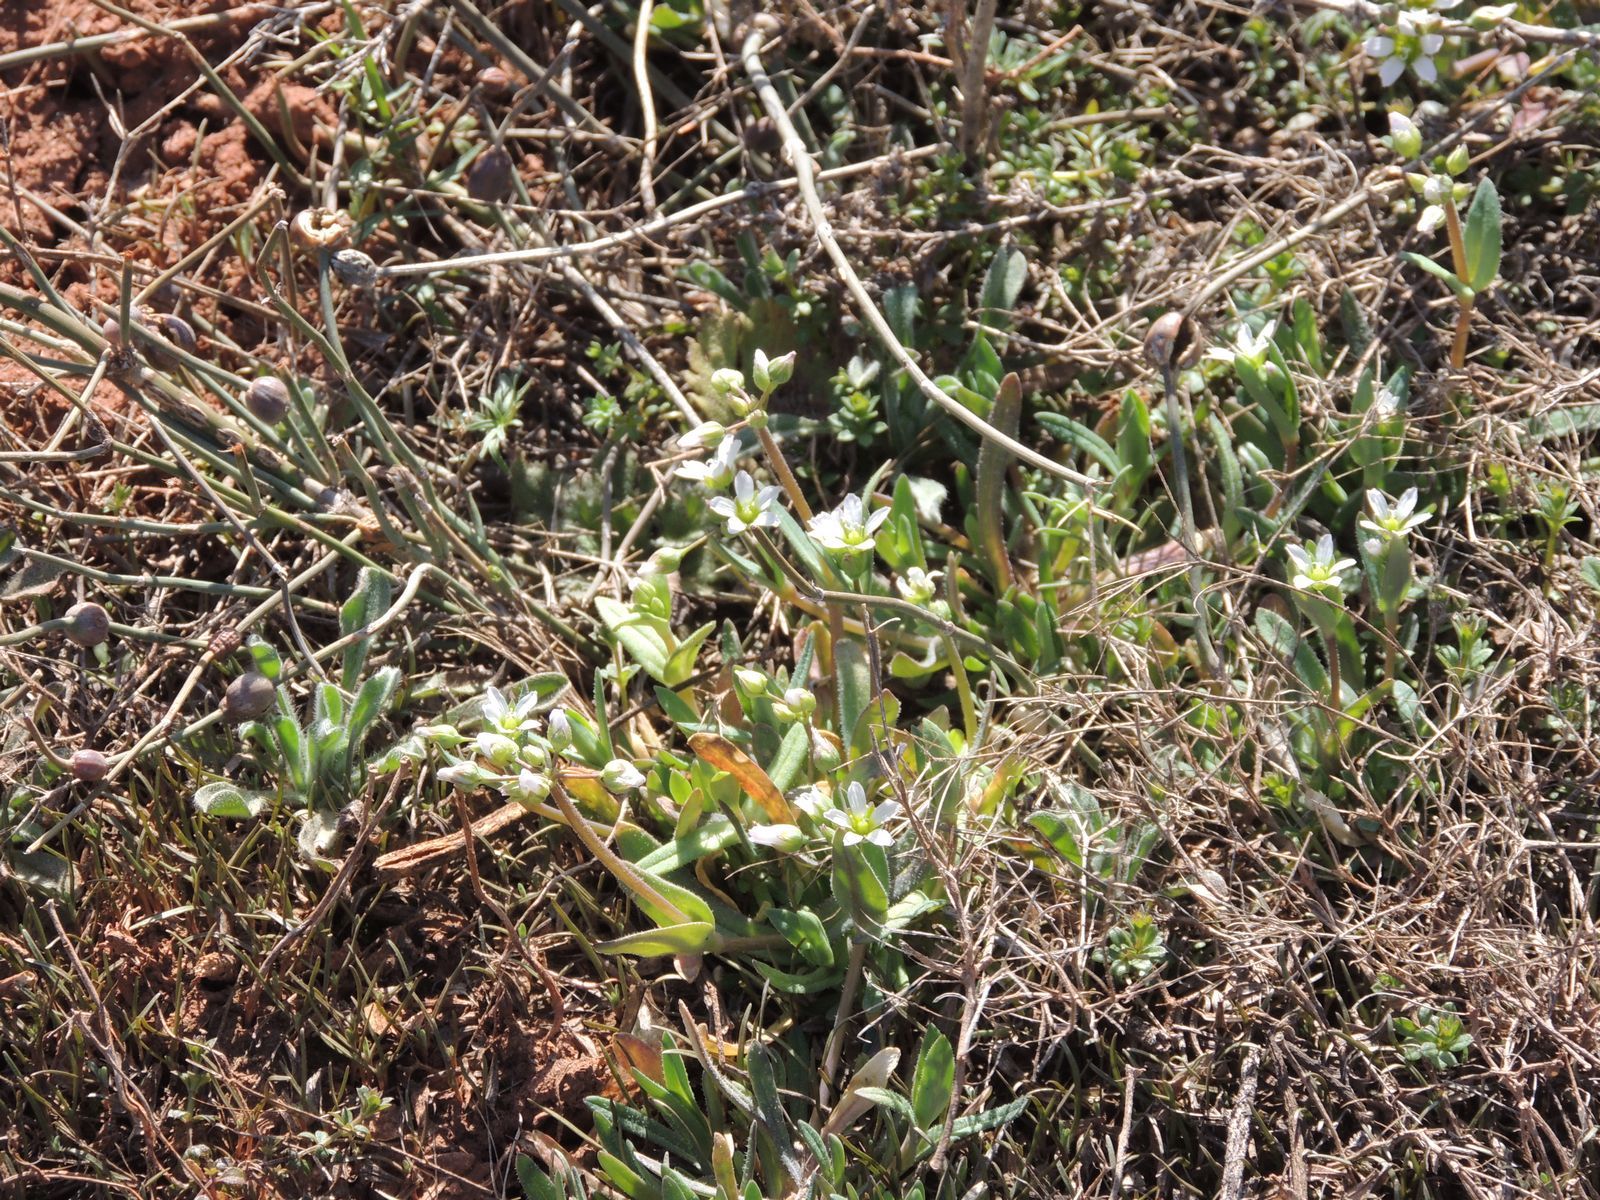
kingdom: Plantae
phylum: Tracheophyta
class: Magnoliopsida
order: Caryophyllales
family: Caryophyllaceae
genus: Holosteum
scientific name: Holosteum umbellatum
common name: Jagged chickweed
